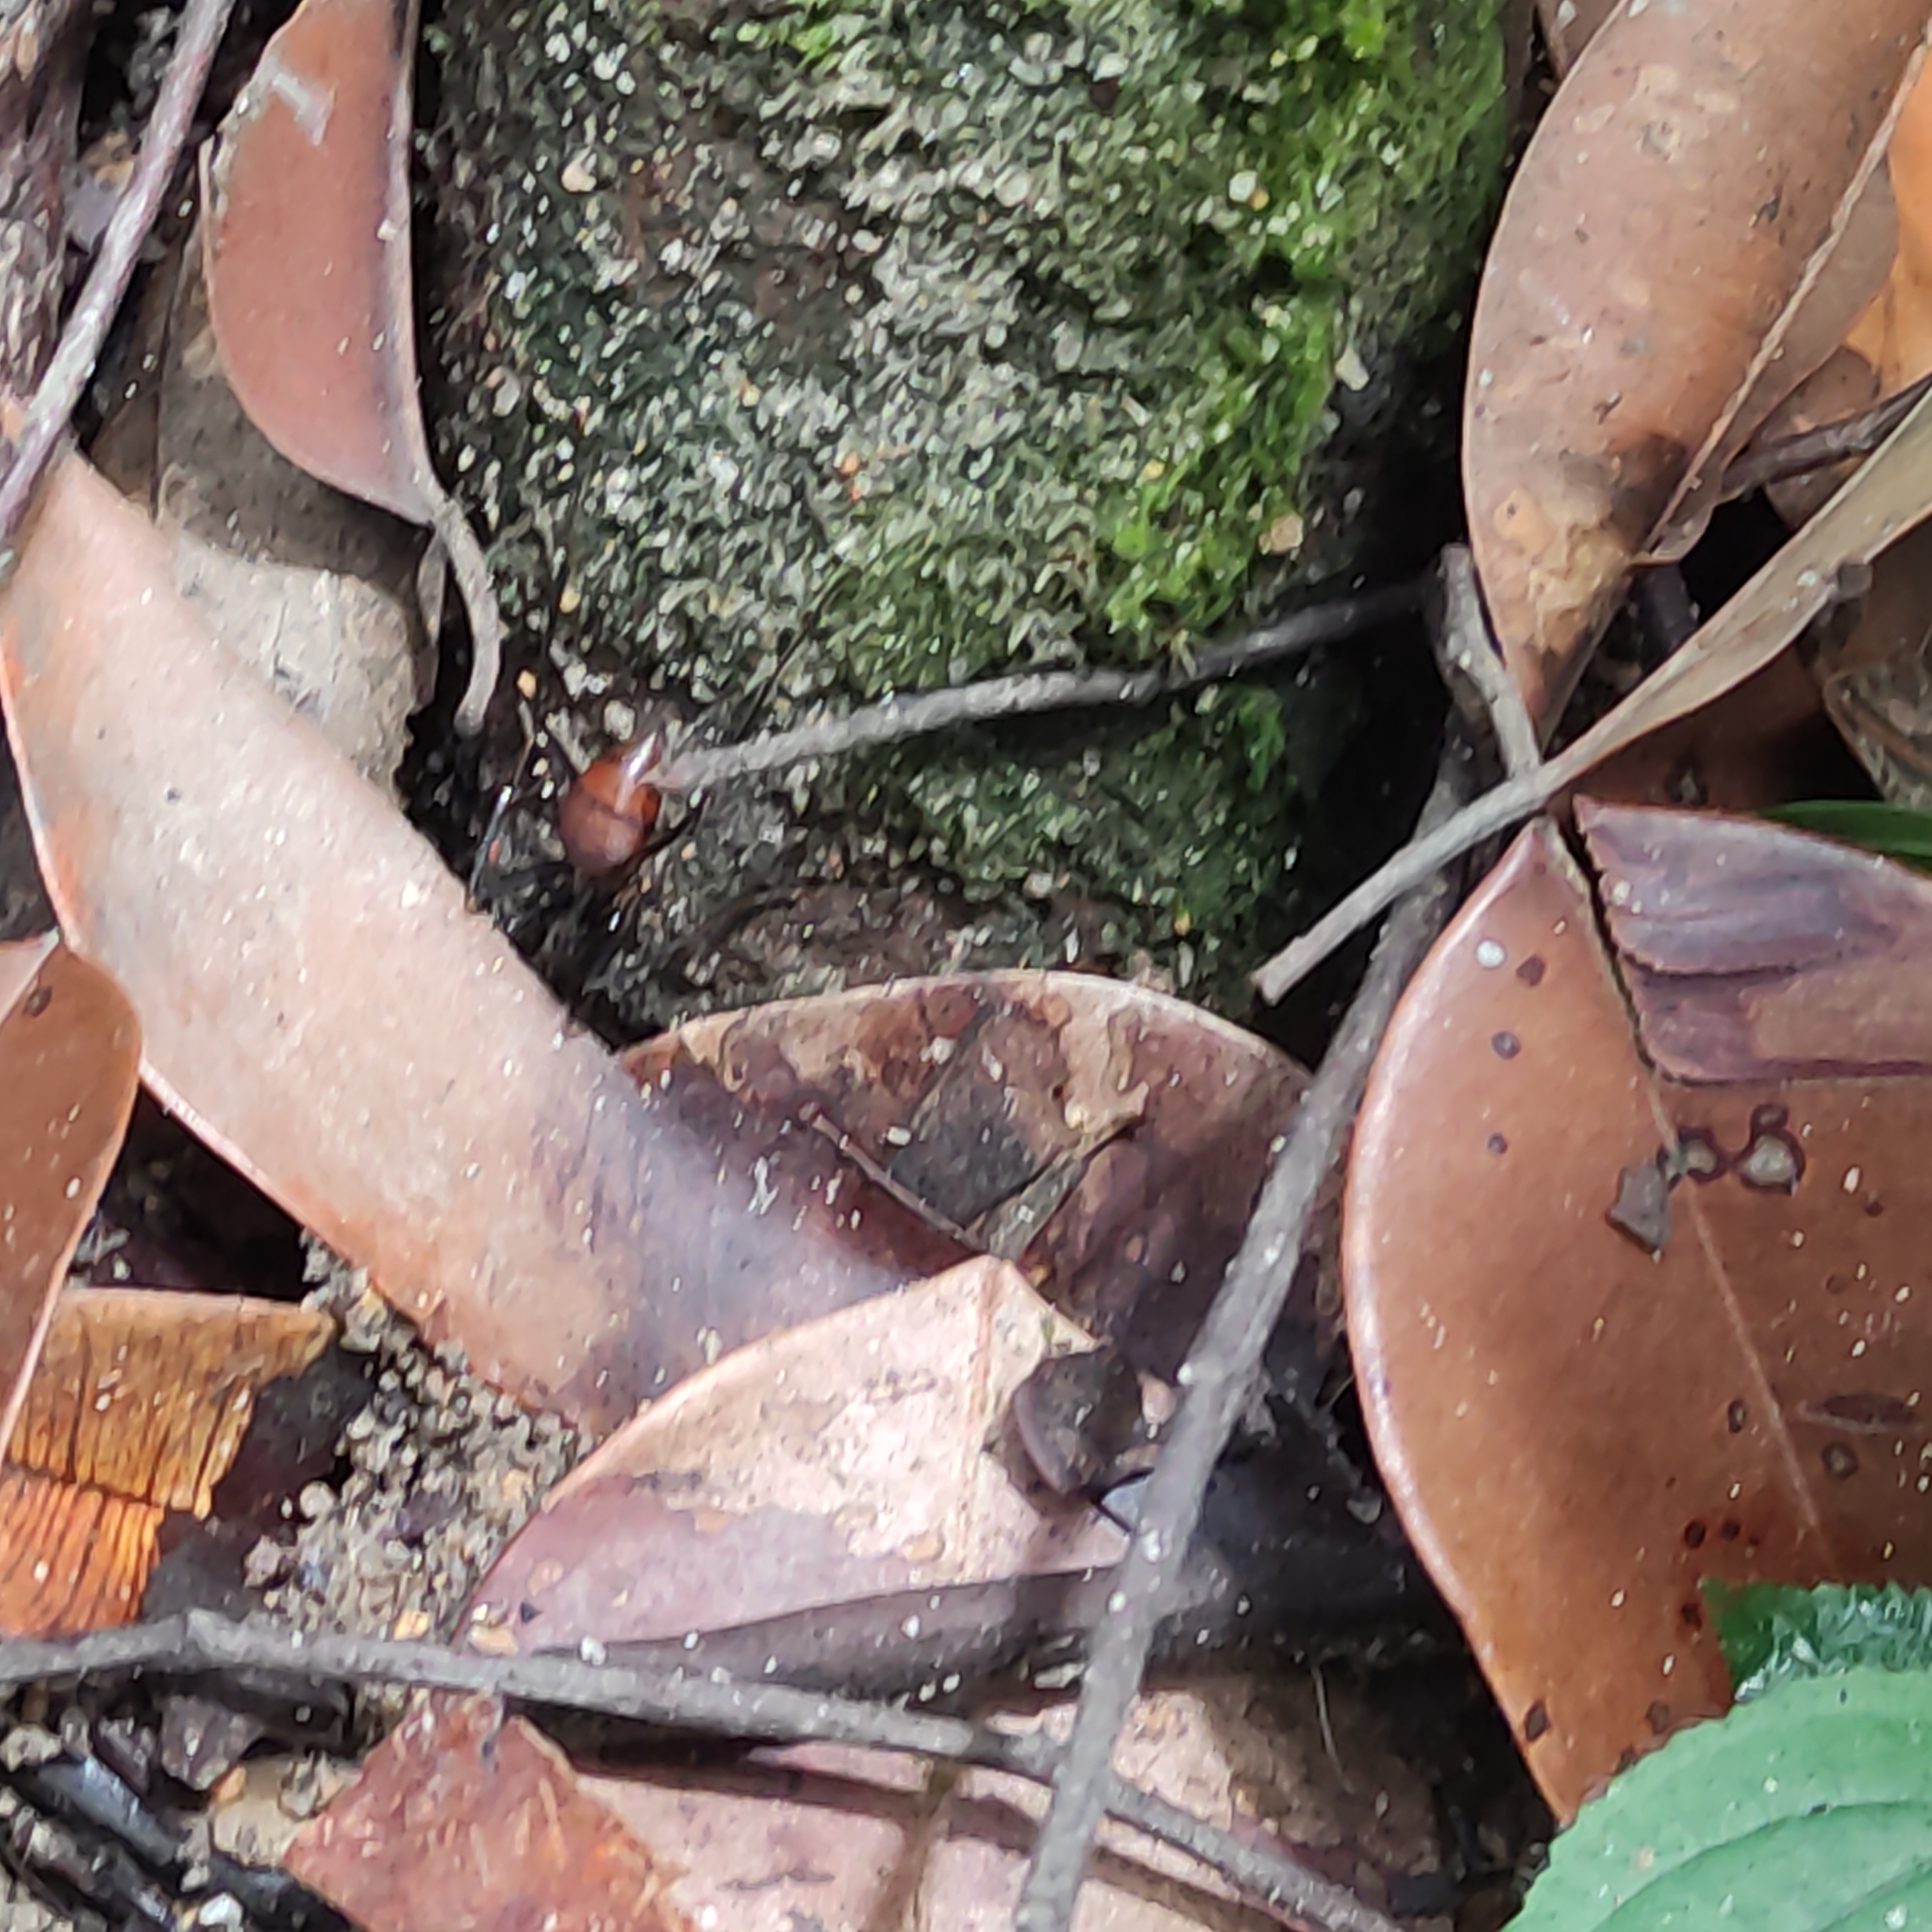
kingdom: Animalia
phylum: Arthropoda
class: Insecta
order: Hymenoptera
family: Formicidae
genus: Dinomyrmex
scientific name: Dinomyrmex
